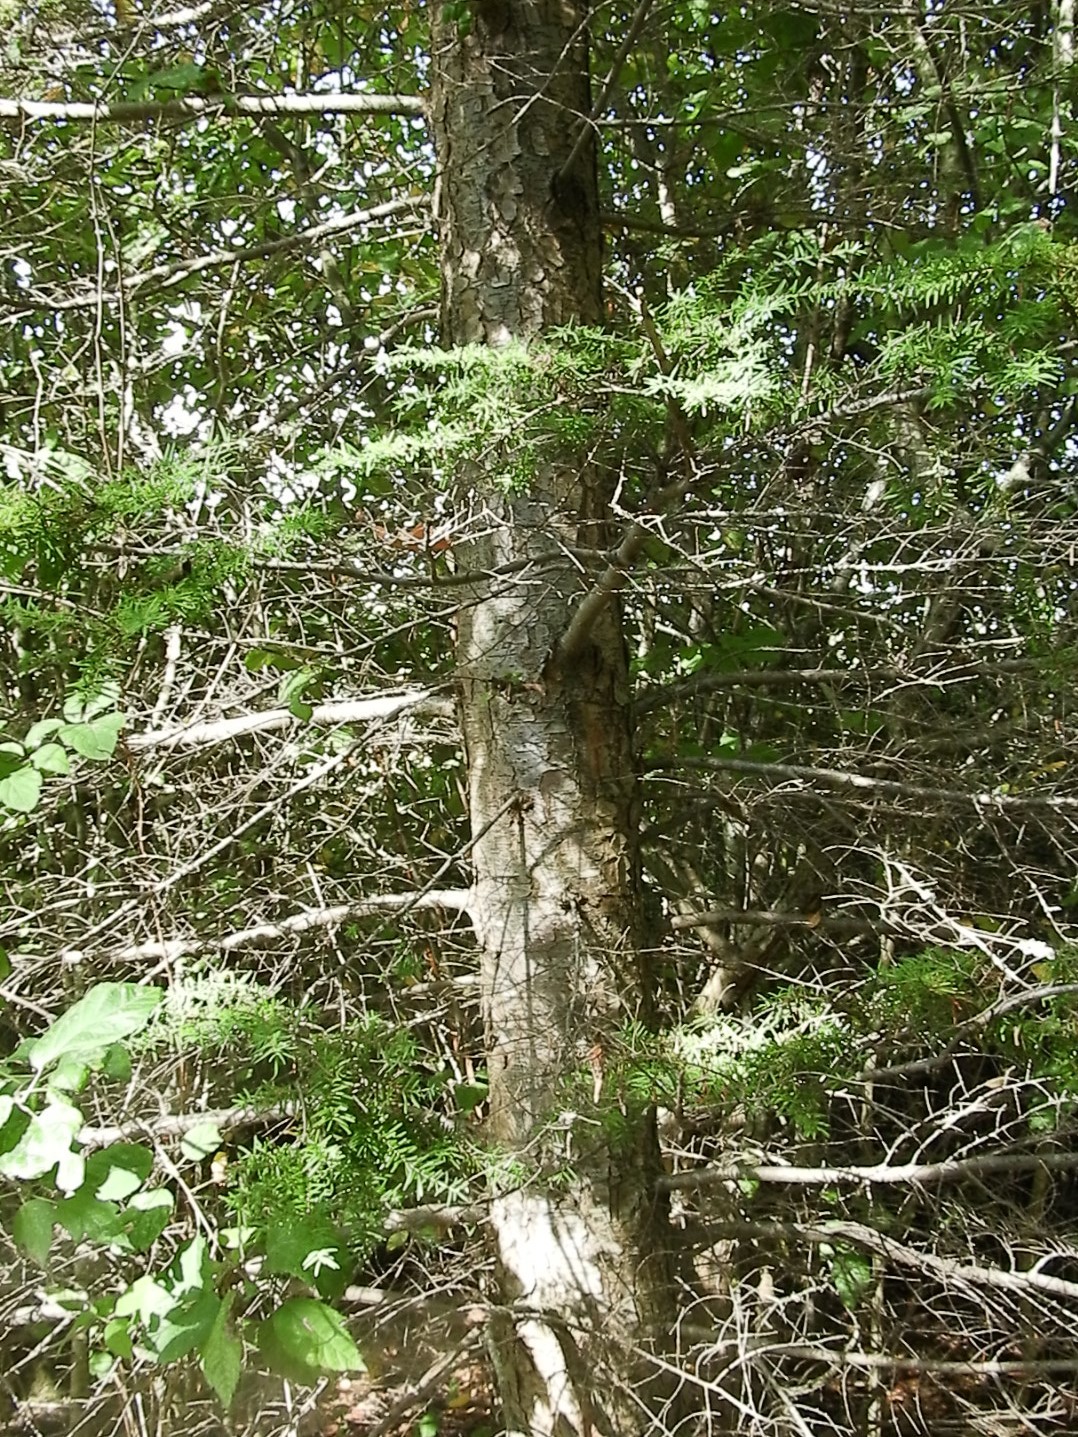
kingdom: Plantae
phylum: Tracheophyta
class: Pinopsida
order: Pinales
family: Pinaceae
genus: Tsuga
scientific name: Tsuga heterophylla
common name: Western hemlock
